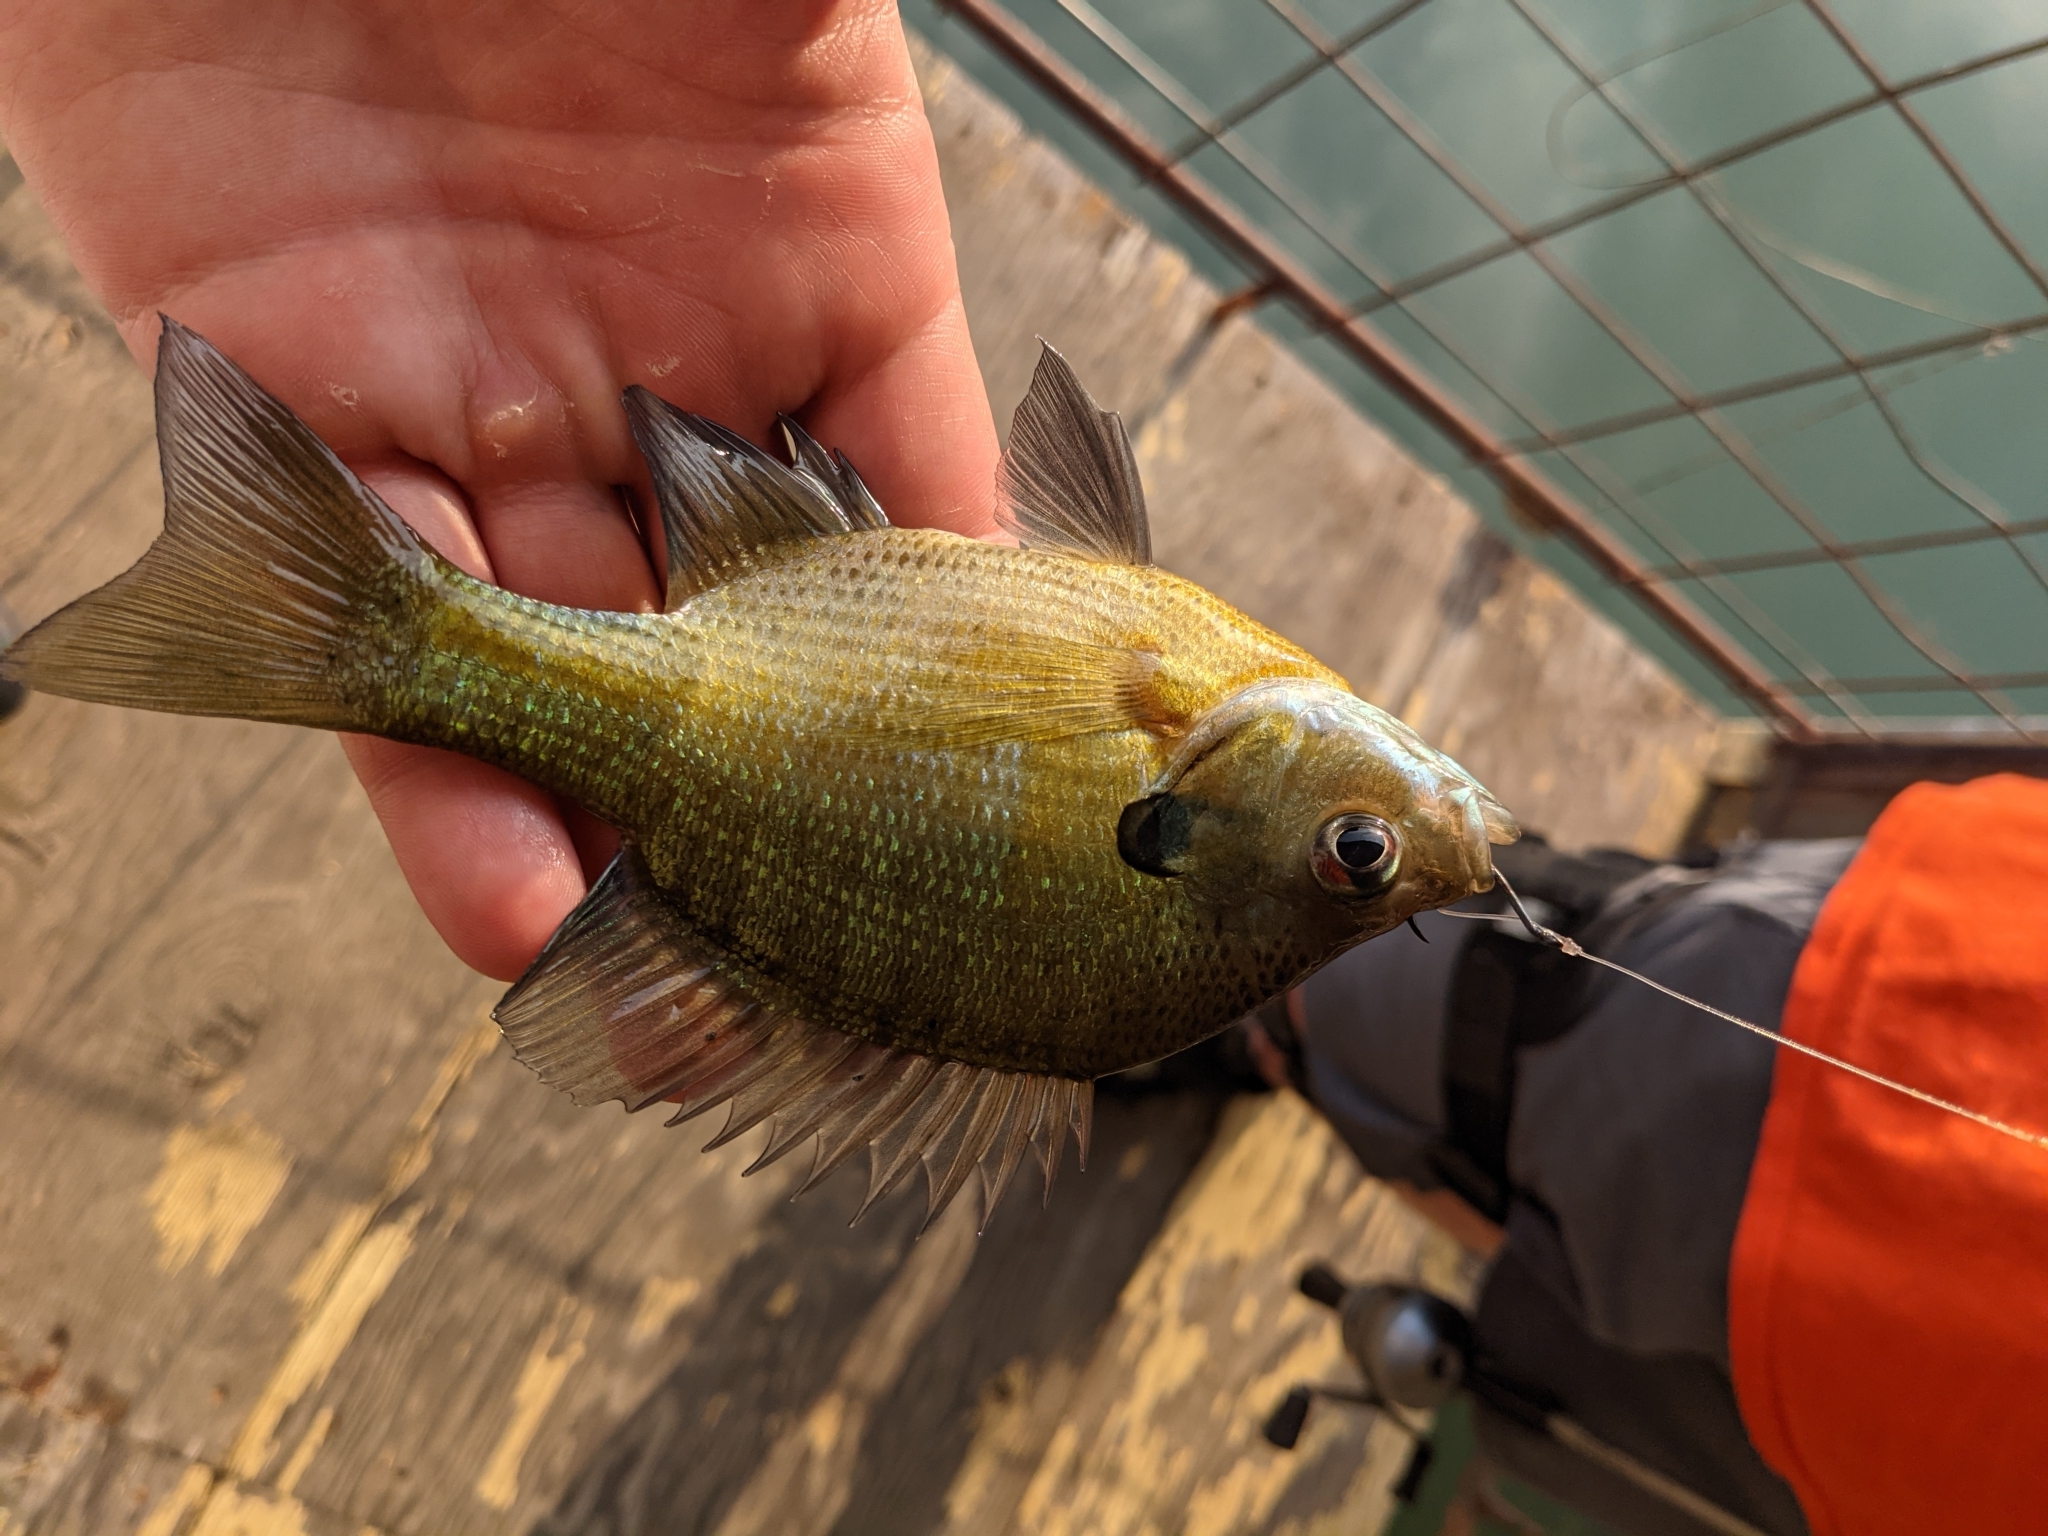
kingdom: Animalia
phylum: Chordata
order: Perciformes
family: Centrarchidae
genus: Lepomis
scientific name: Lepomis macrochirus
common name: Bluegill
